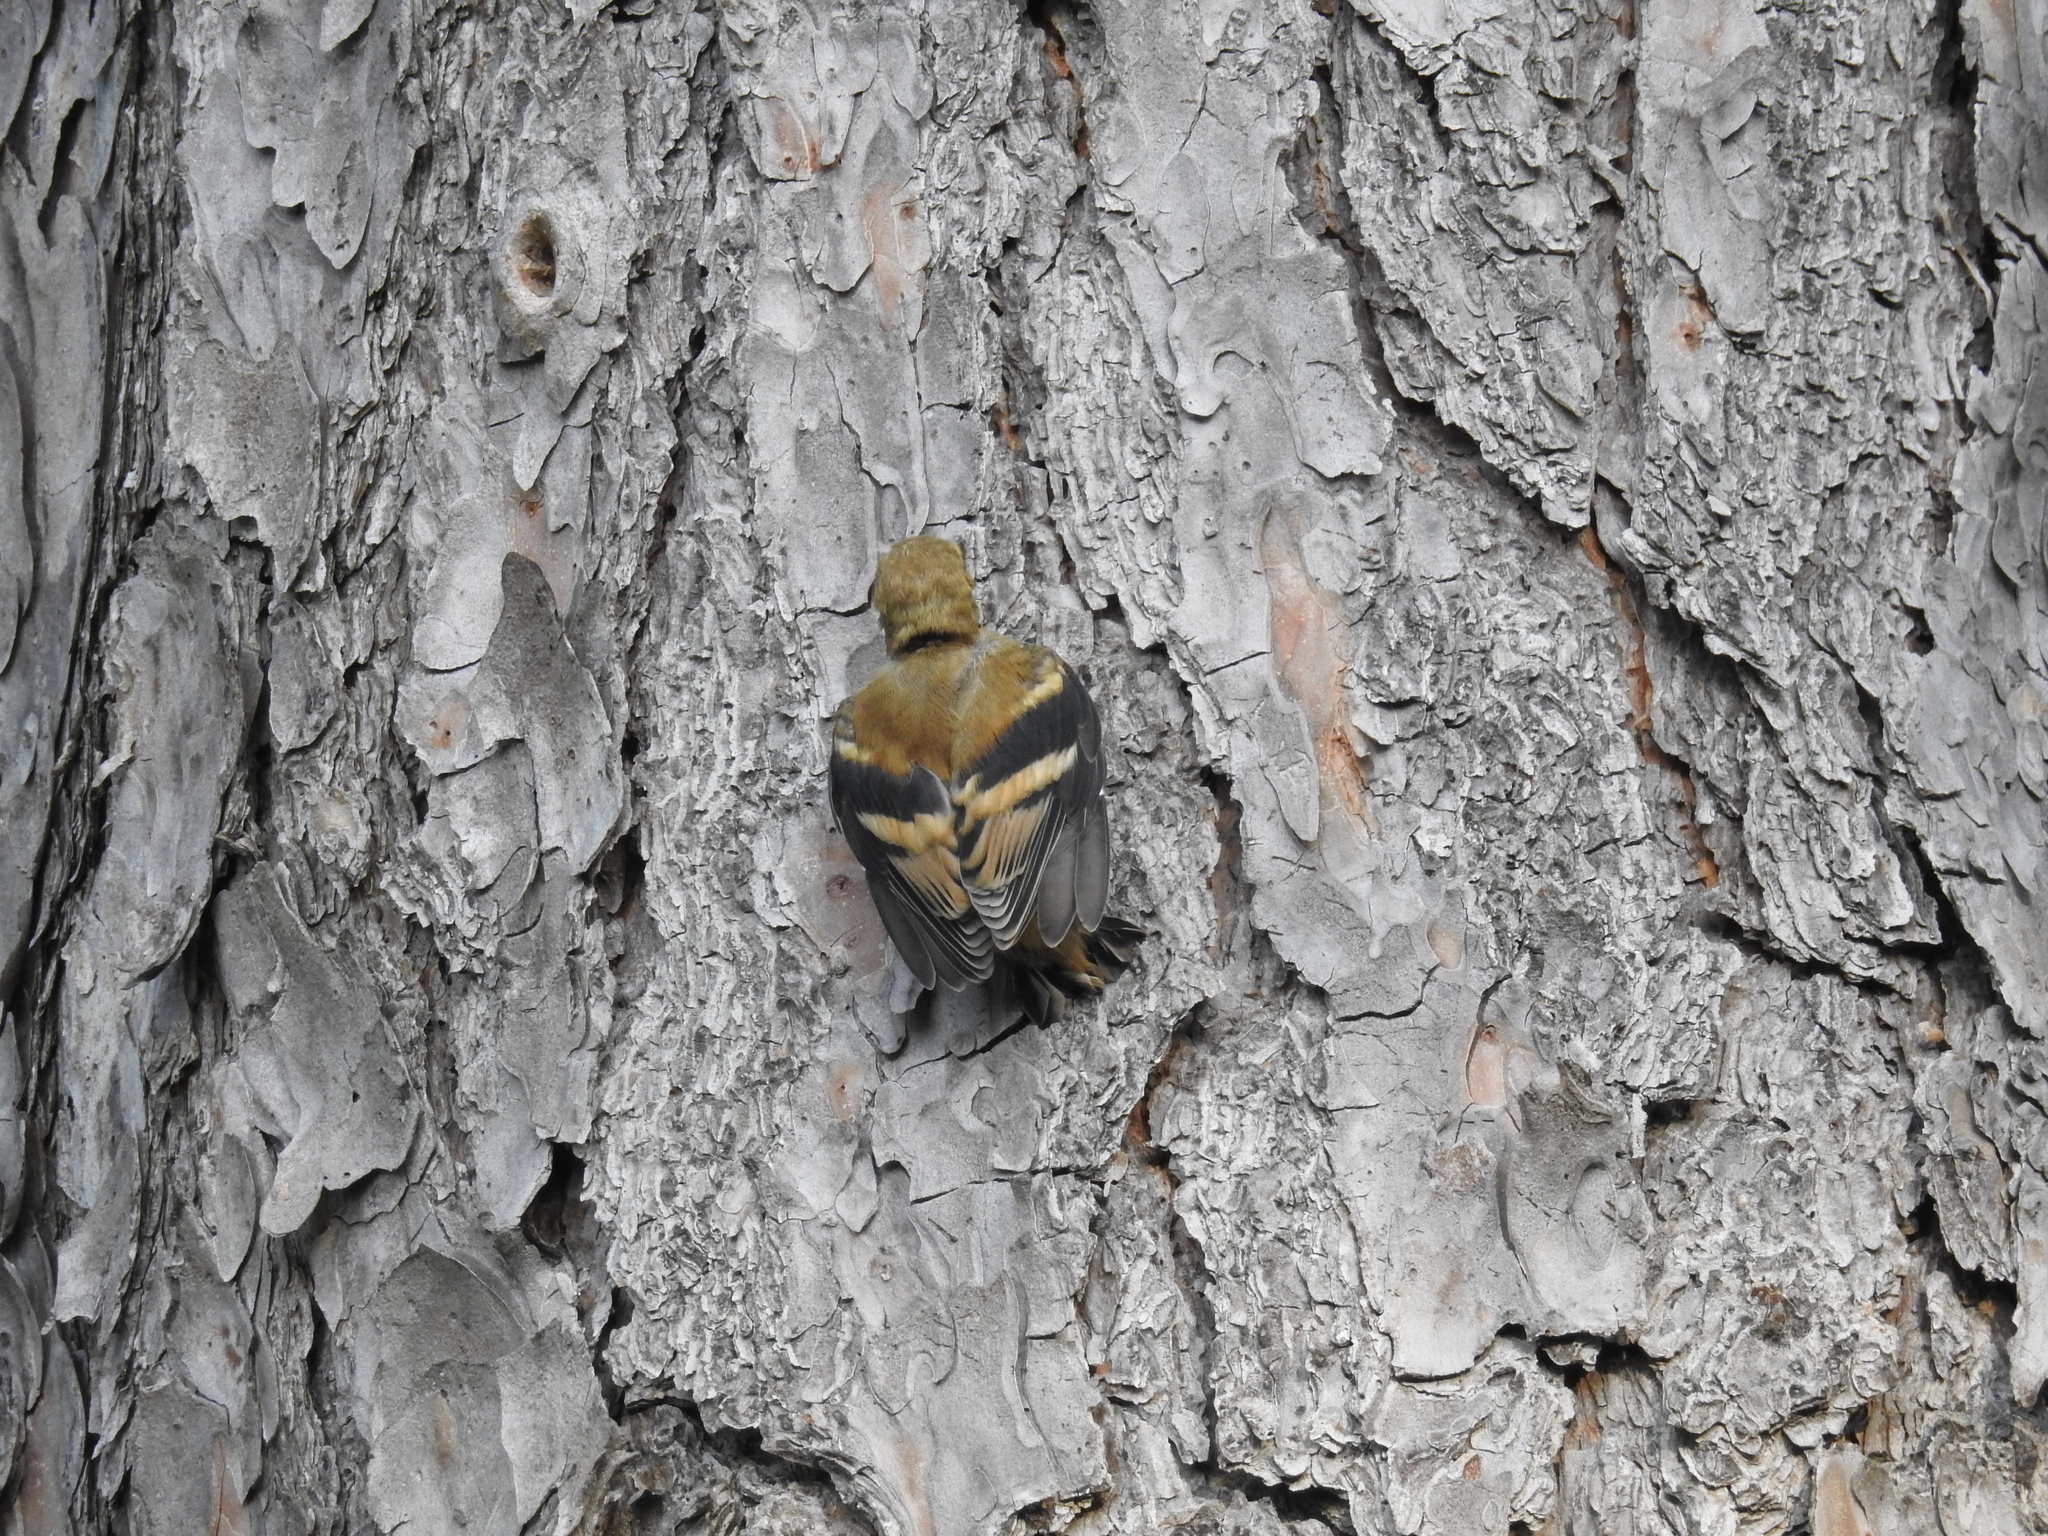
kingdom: Animalia
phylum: Chordata
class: Aves
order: Passeriformes
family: Fringillidae
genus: Spinus
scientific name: Spinus tristis
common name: American goldfinch
